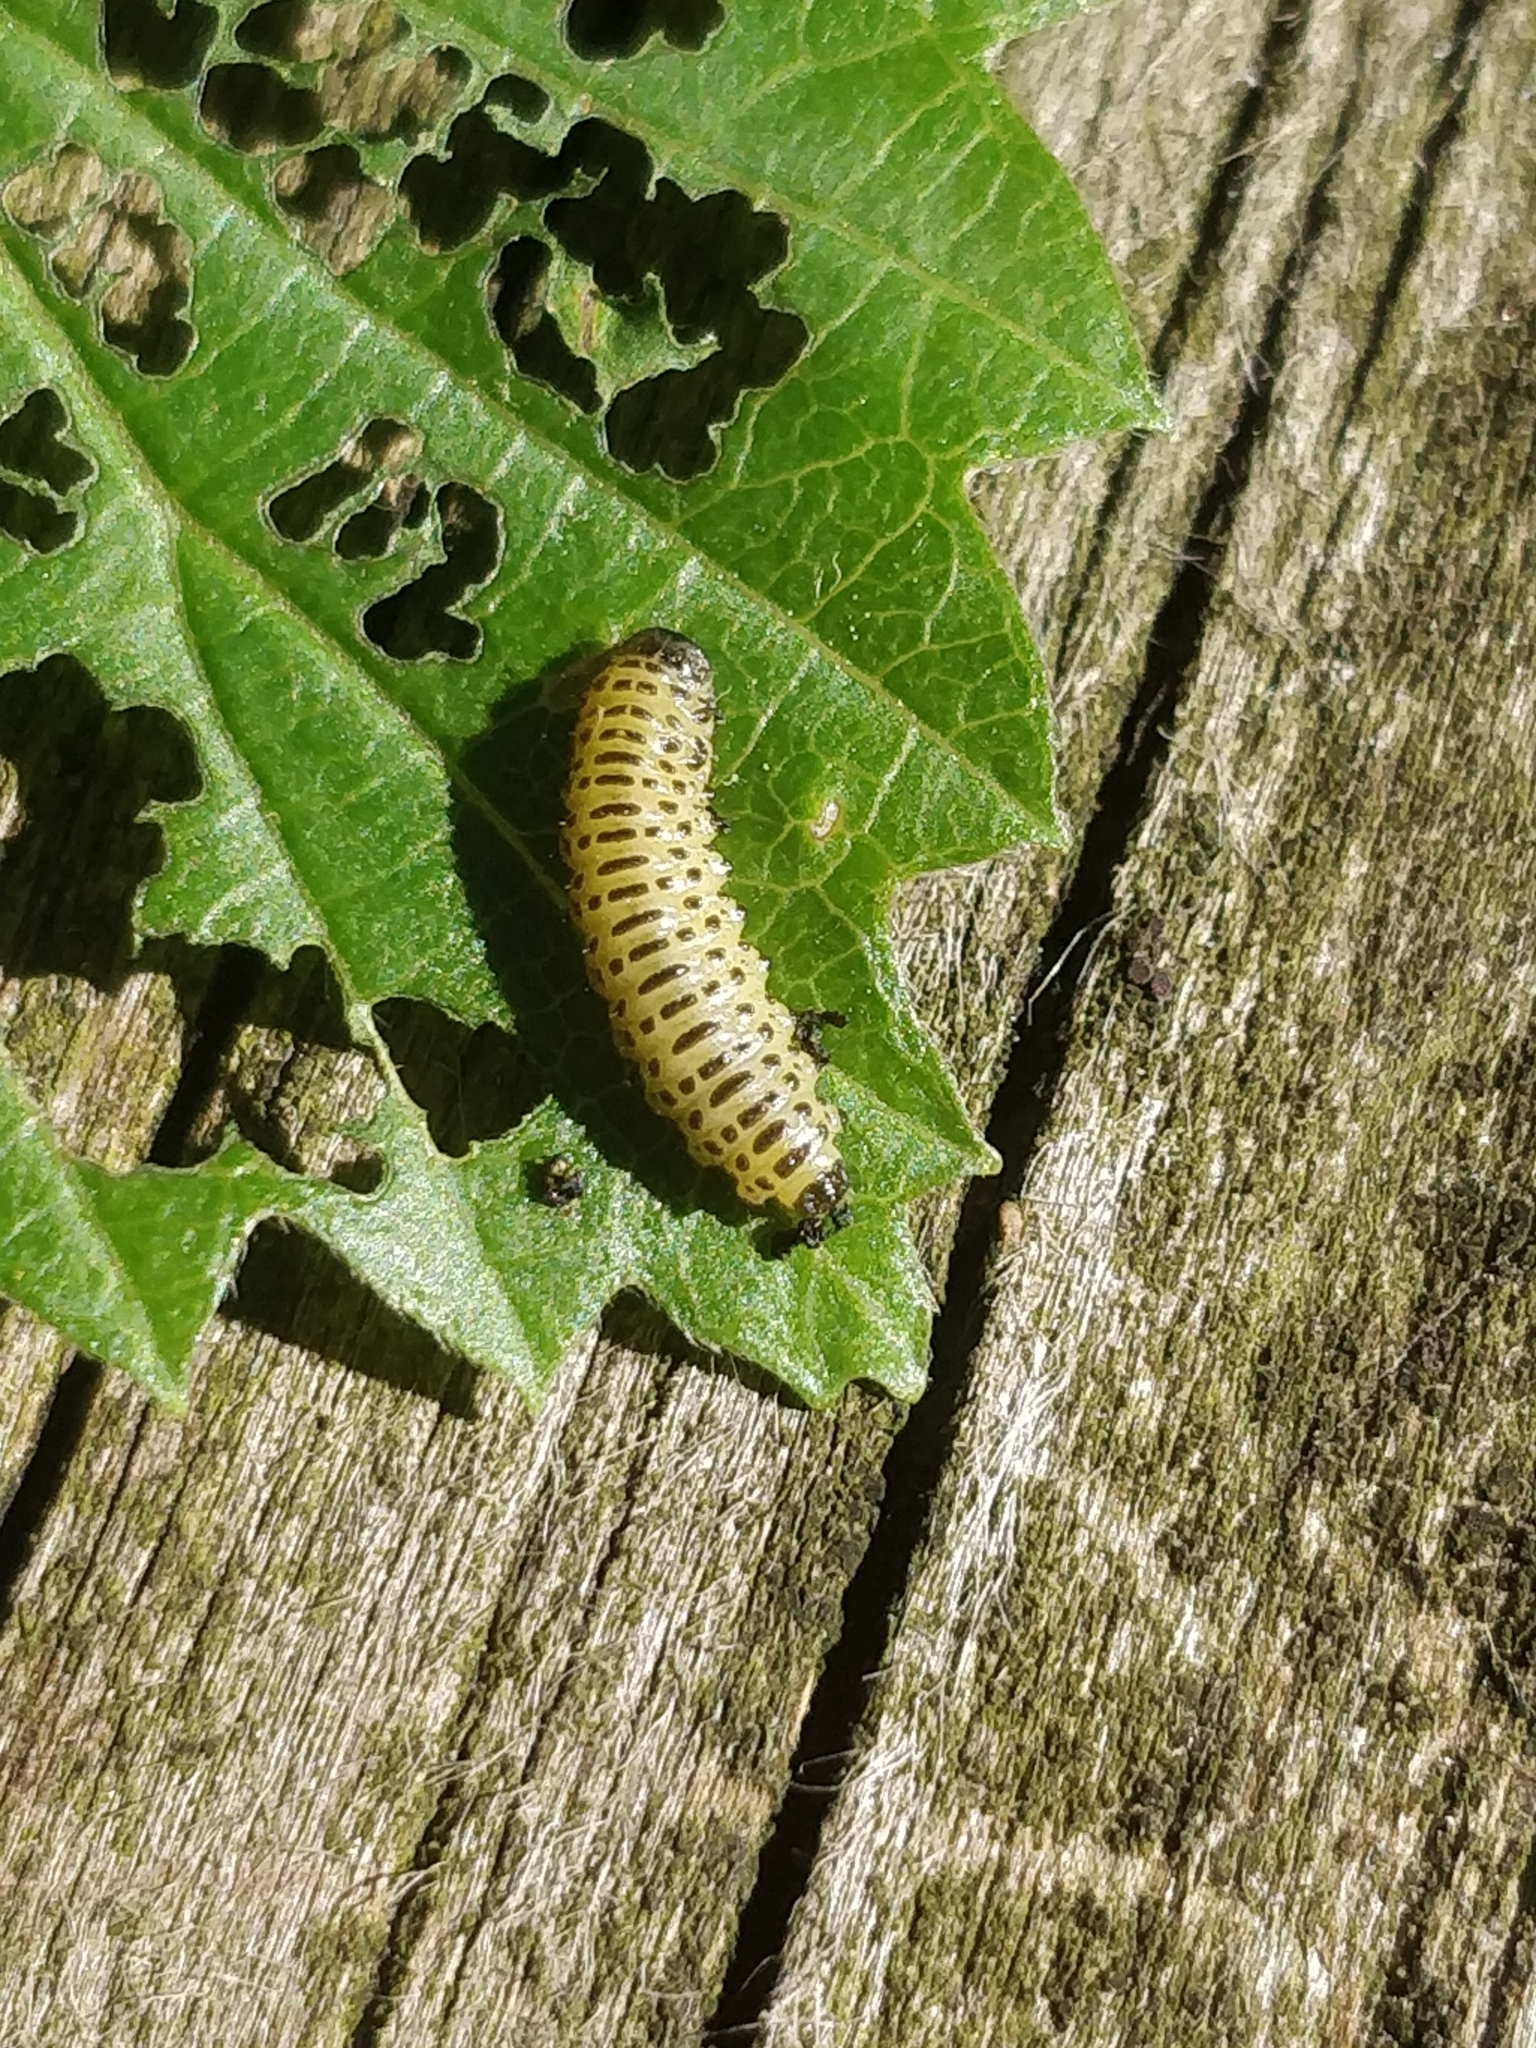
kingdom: Animalia
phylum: Arthropoda
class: Insecta
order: Coleoptera
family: Chrysomelidae
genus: Pyrrhalta
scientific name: Pyrrhalta viburni
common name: Guelder-rose leaf beetle
